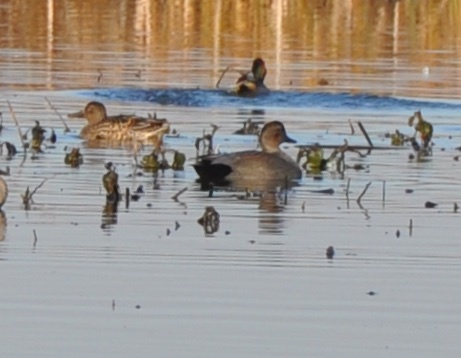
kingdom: Animalia
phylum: Chordata
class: Aves
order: Anseriformes
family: Anatidae
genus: Mareca
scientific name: Mareca strepera
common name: Gadwall
